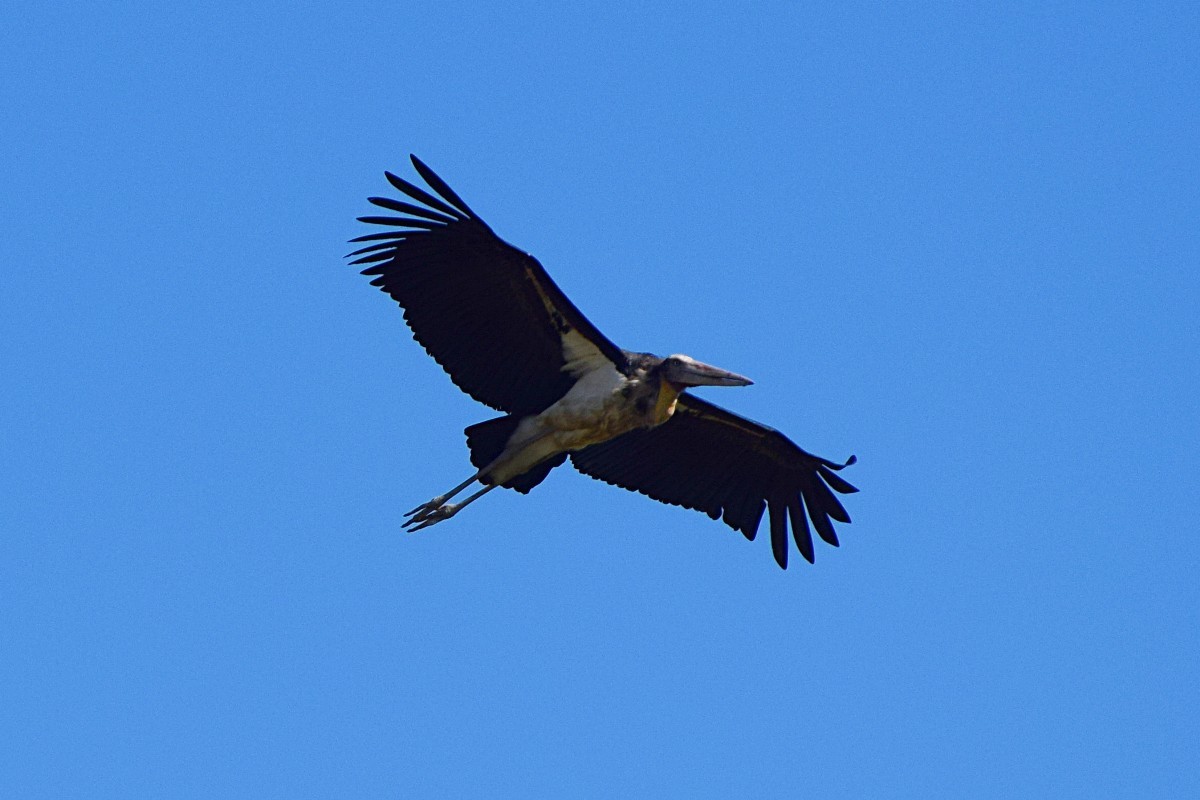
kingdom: Animalia
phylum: Chordata
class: Aves
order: Ciconiiformes
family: Ciconiidae
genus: Leptoptilos
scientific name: Leptoptilos javanicus
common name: Lesser adjutant
